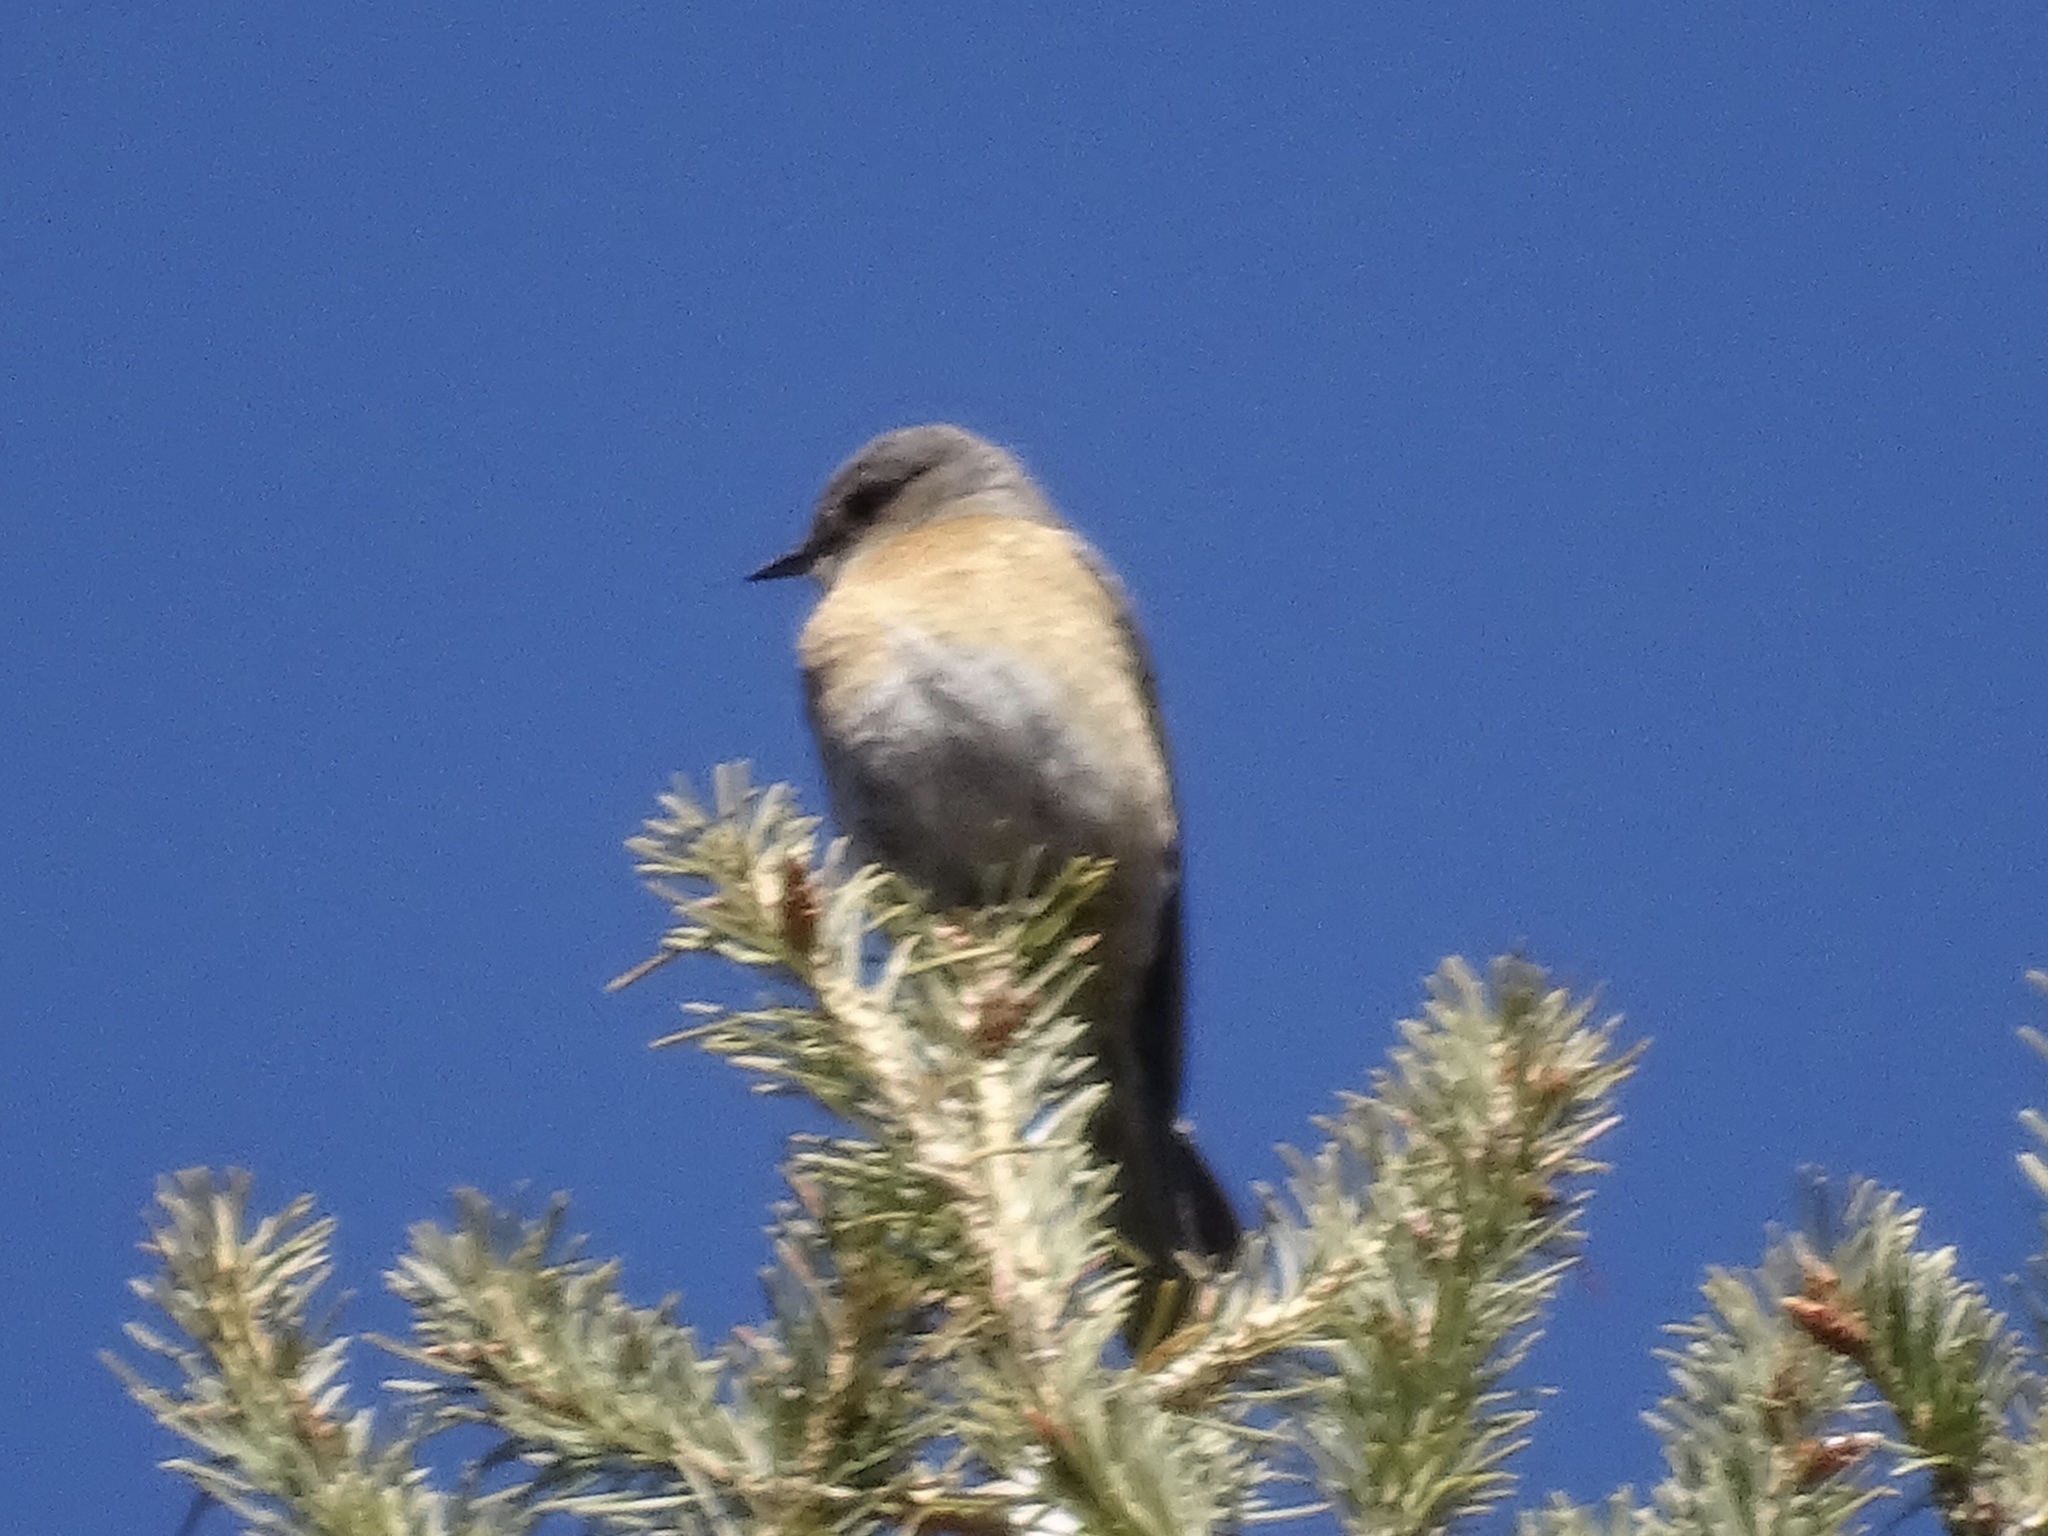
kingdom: Animalia
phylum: Chordata
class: Aves
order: Passeriformes
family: Turdidae
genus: Sialia
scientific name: Sialia mexicana
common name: Western bluebird
